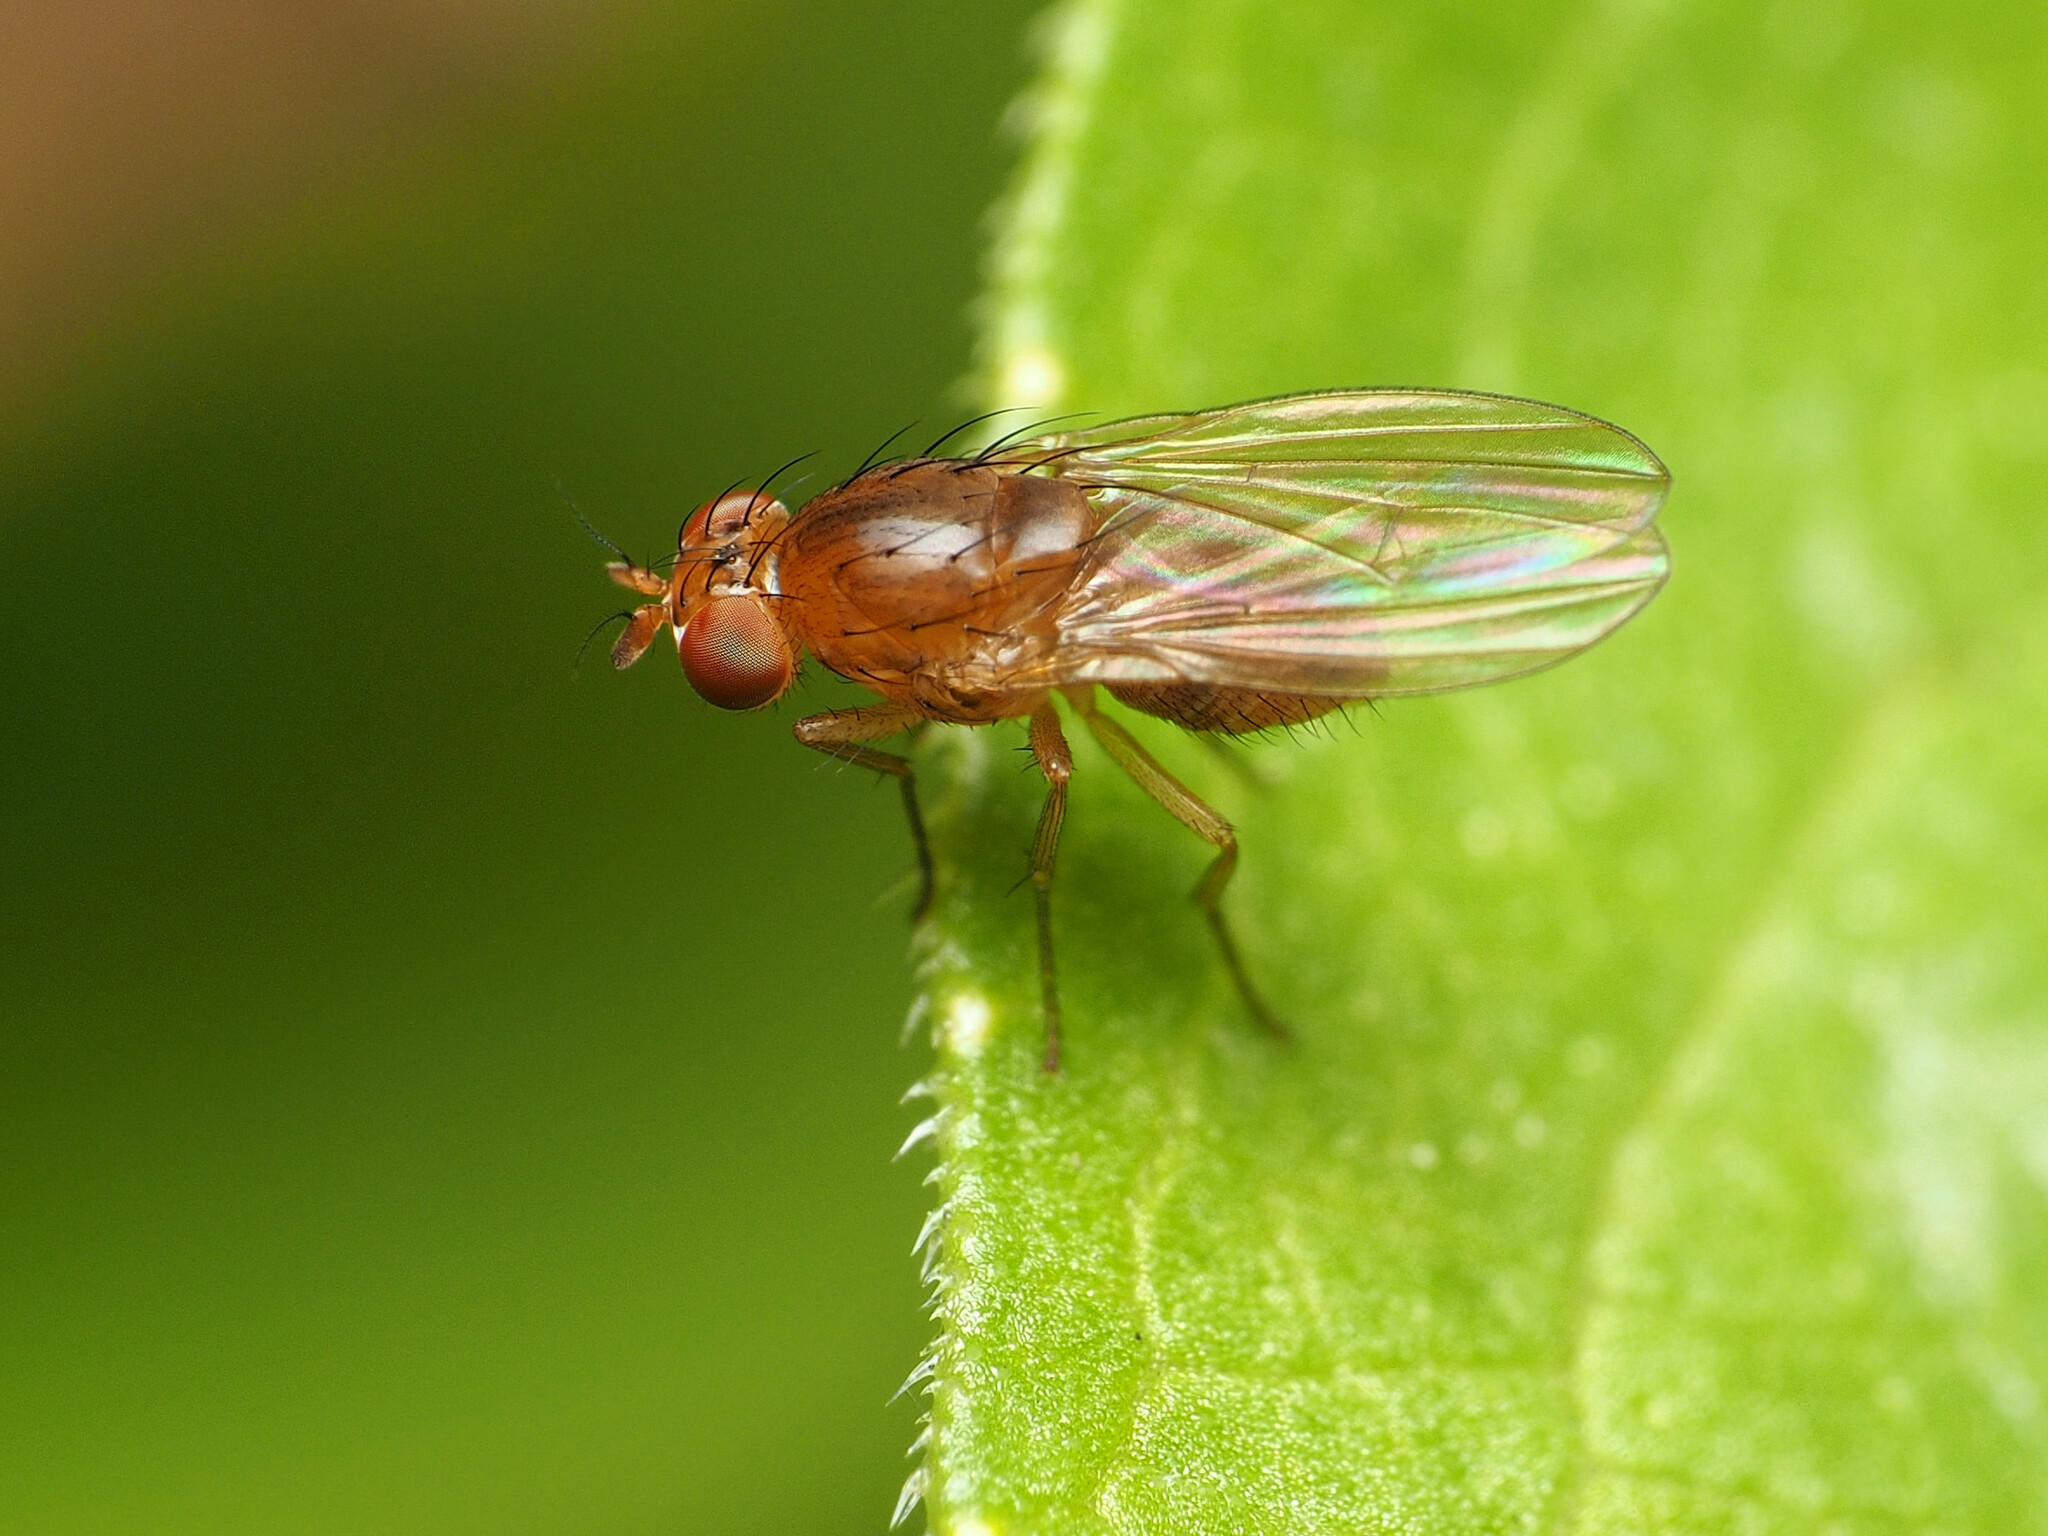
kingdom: Animalia
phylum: Arthropoda
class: Insecta
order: Diptera
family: Lauxaniidae
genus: Homoneura
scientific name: Homoneura unguiculata
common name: Beach fly
